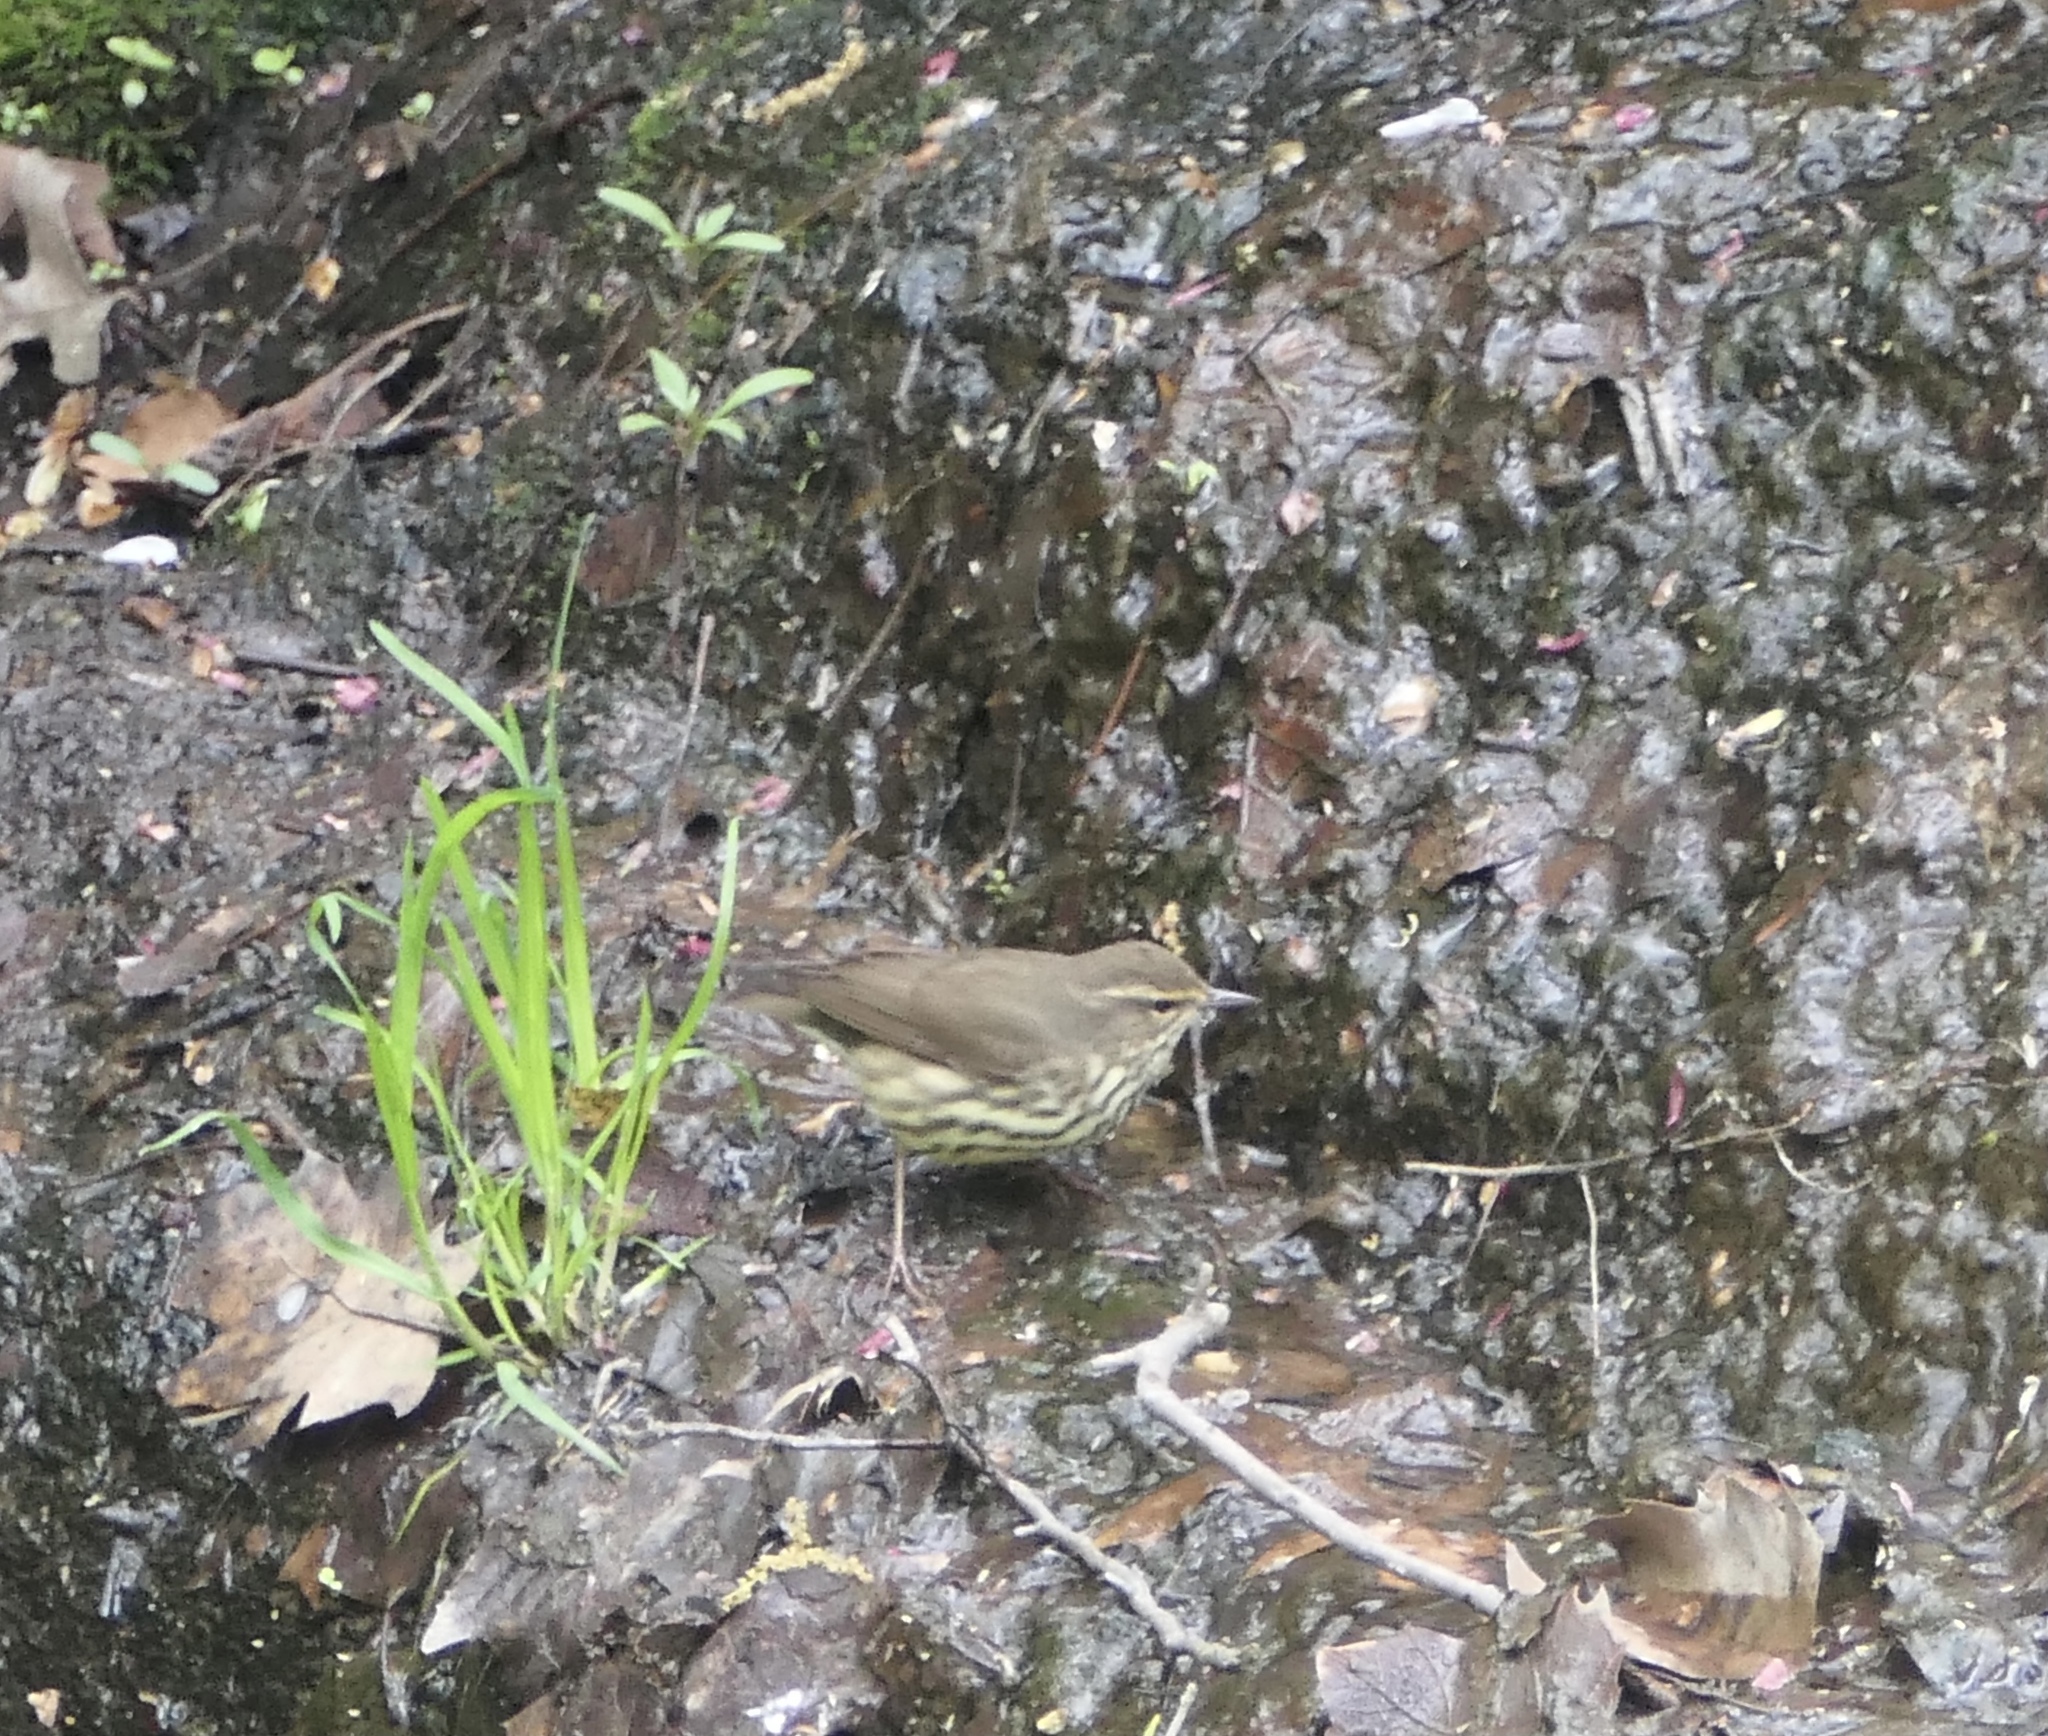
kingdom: Animalia
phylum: Chordata
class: Aves
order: Passeriformes
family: Parulidae
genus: Parkesia
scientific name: Parkesia noveboracensis
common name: Northern waterthrush
